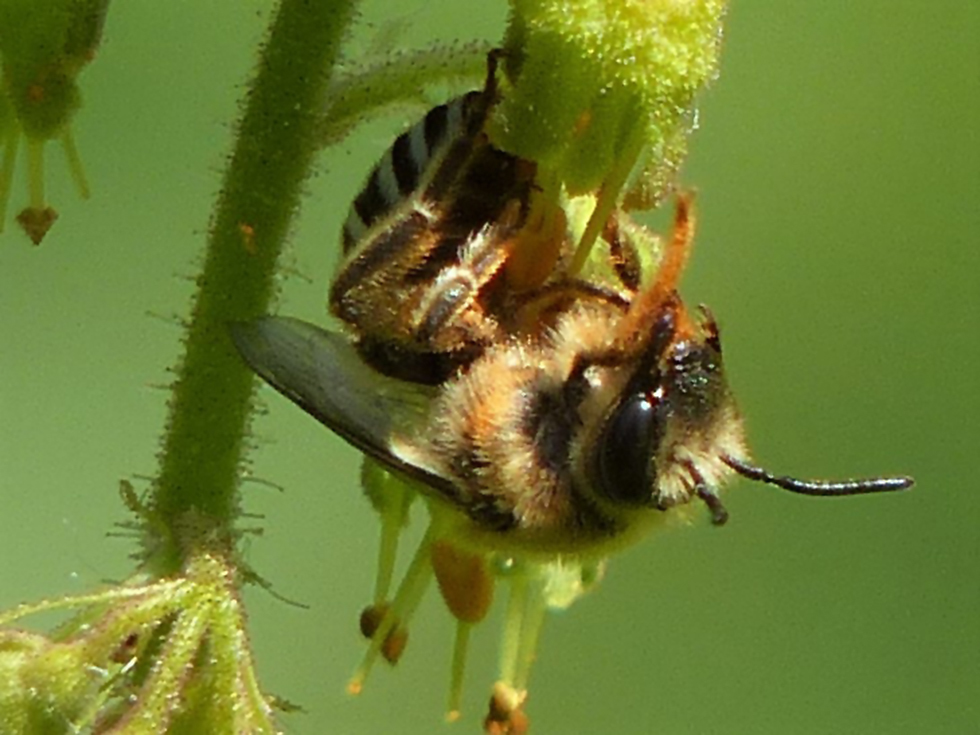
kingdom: Animalia
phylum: Arthropoda
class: Insecta
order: Hymenoptera
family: Colletidae
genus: Colletes
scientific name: Colletes aestivalis
